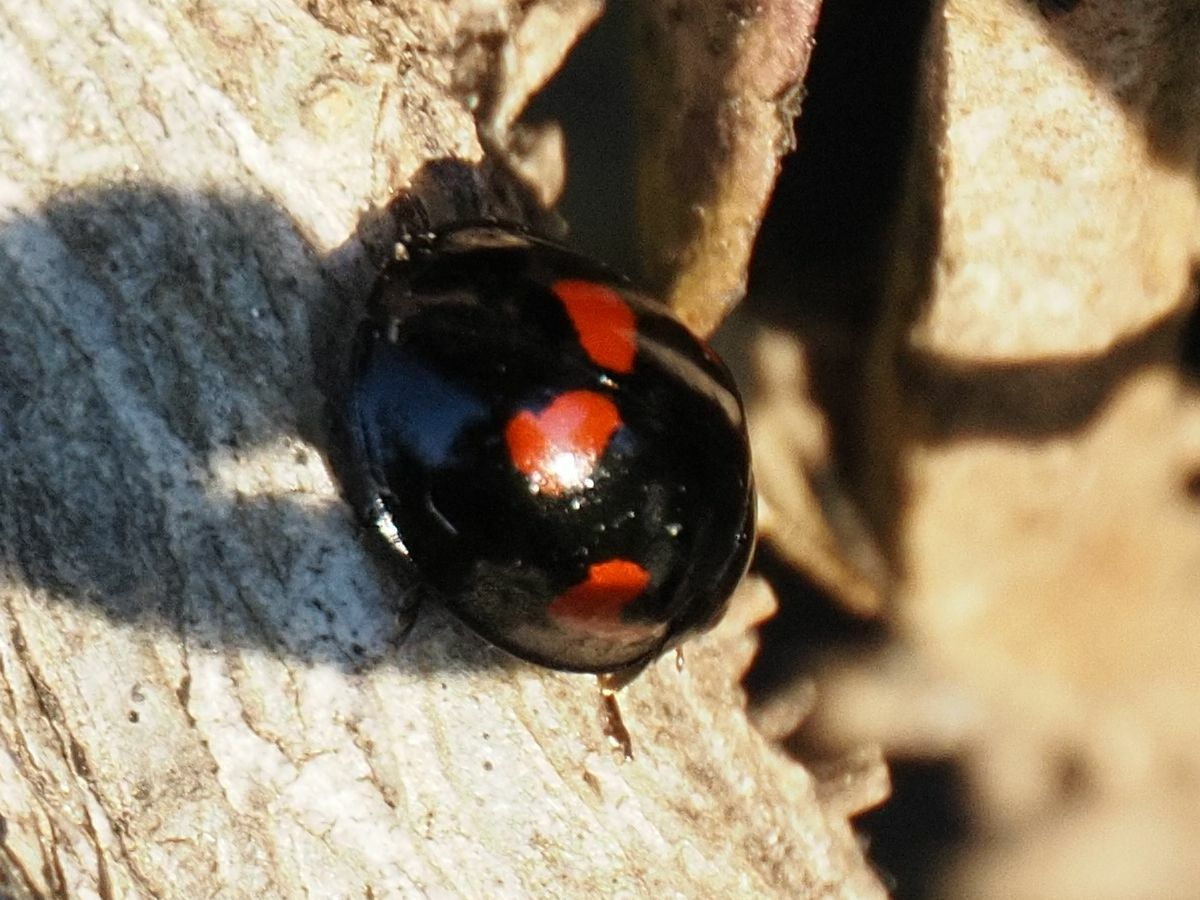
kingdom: Animalia
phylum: Arthropoda
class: Insecta
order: Coleoptera
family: Coccinellidae
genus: Brumus
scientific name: Brumus quadripustulatus
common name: Ladybird beetle
